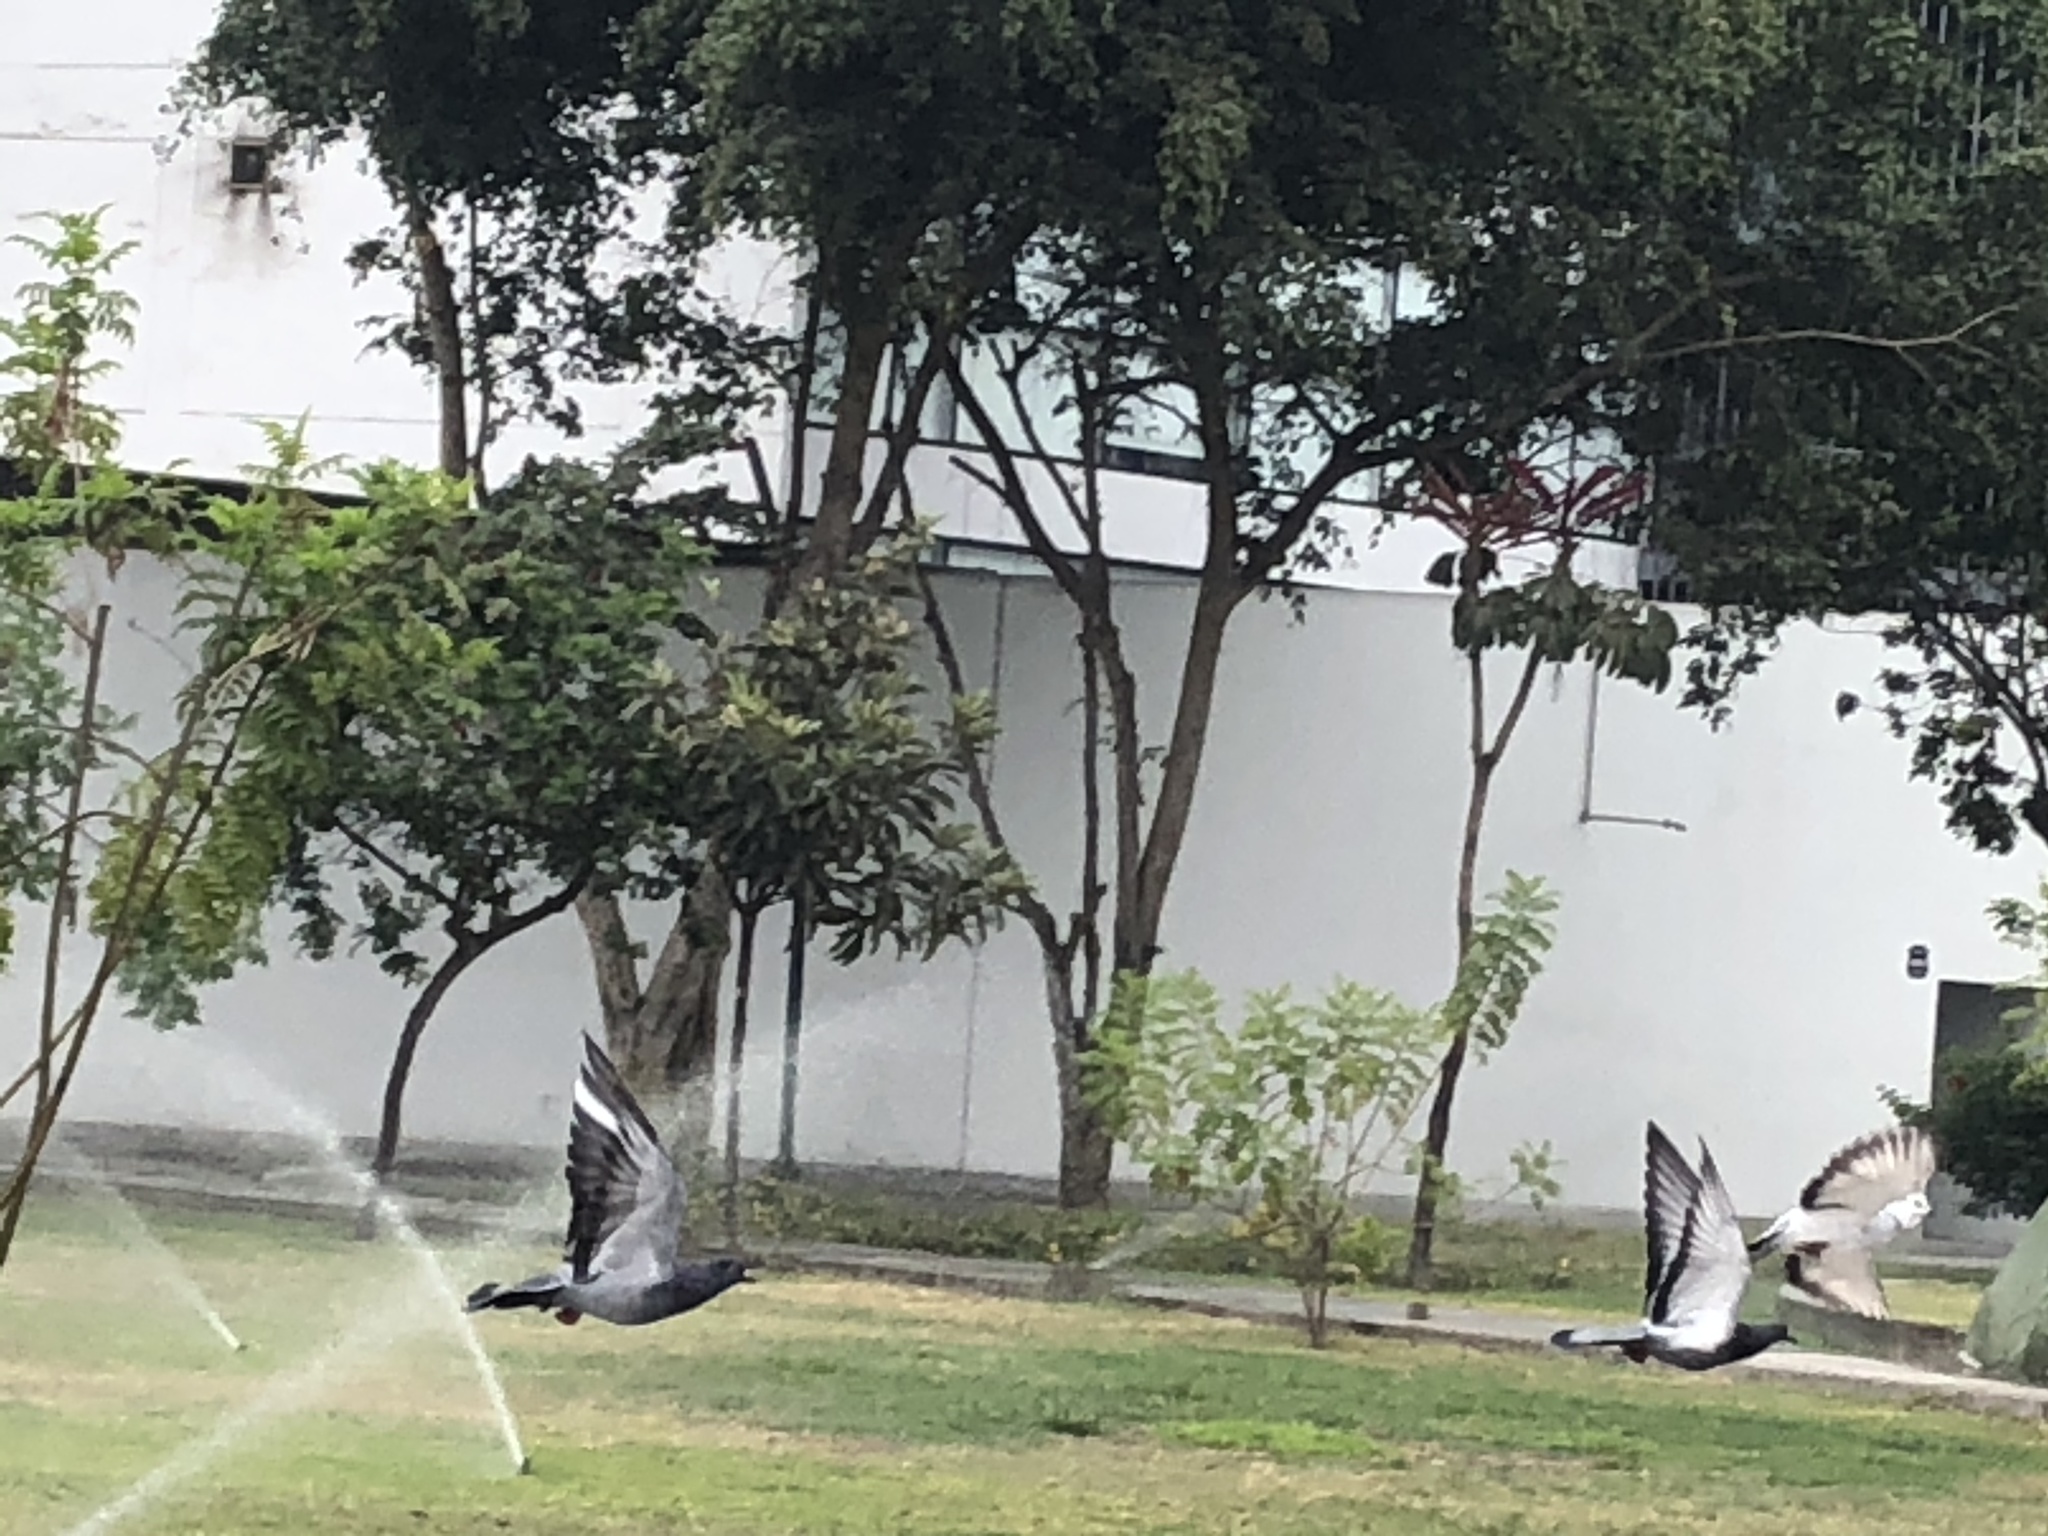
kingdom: Animalia
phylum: Chordata
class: Aves
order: Columbiformes
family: Columbidae
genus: Columba
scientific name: Columba livia
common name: Rock pigeon
